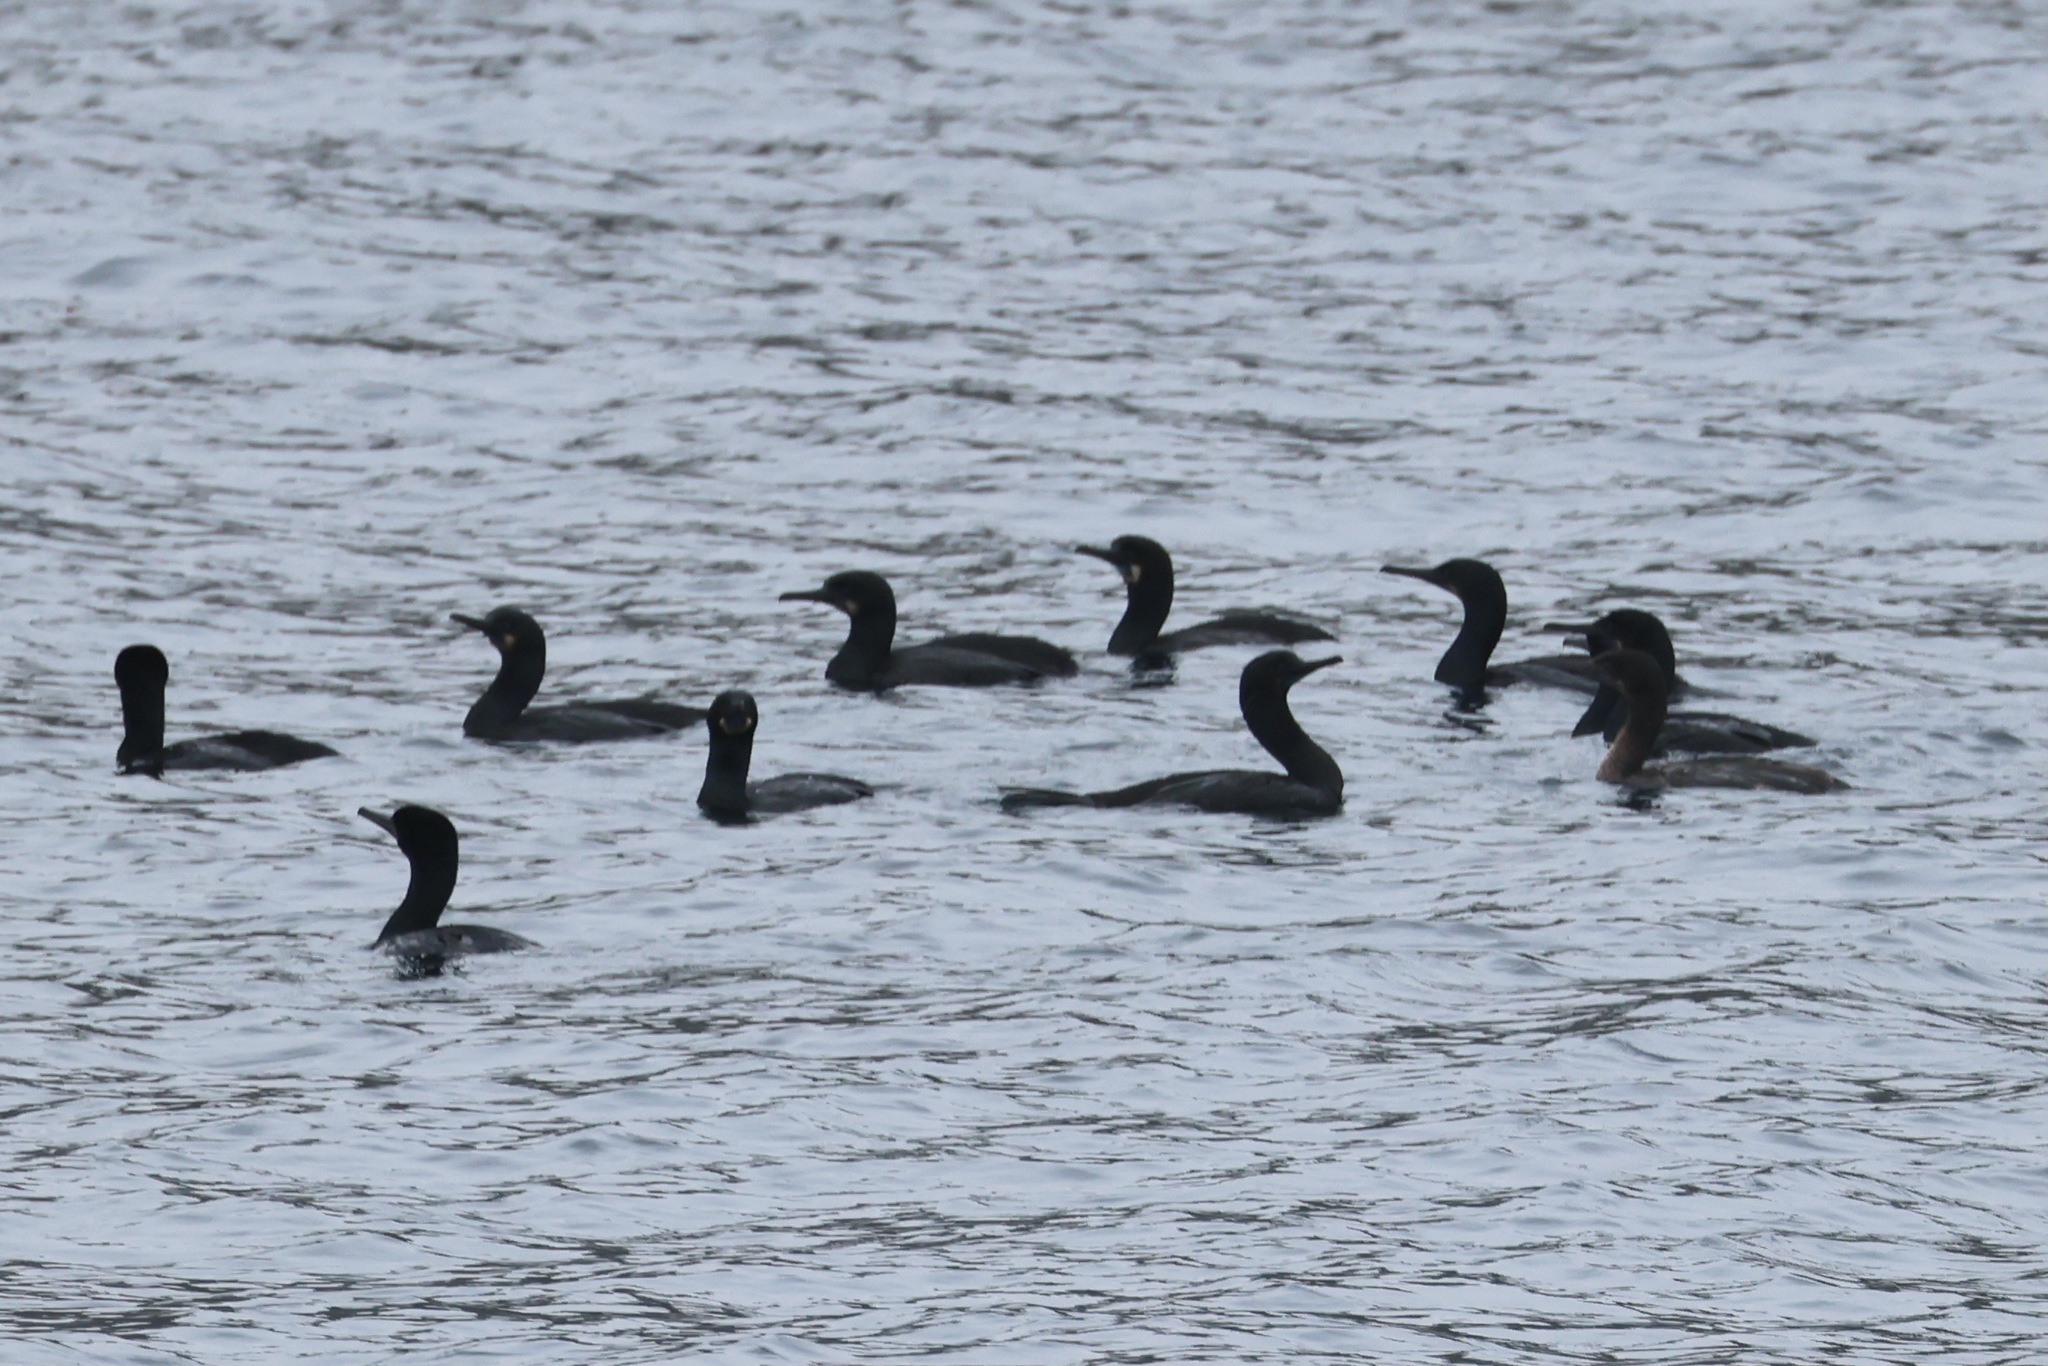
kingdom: Animalia
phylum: Chordata
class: Aves
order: Suliformes
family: Phalacrocoracidae
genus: Urile
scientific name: Urile penicillatus
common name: Brandt's cormorant
